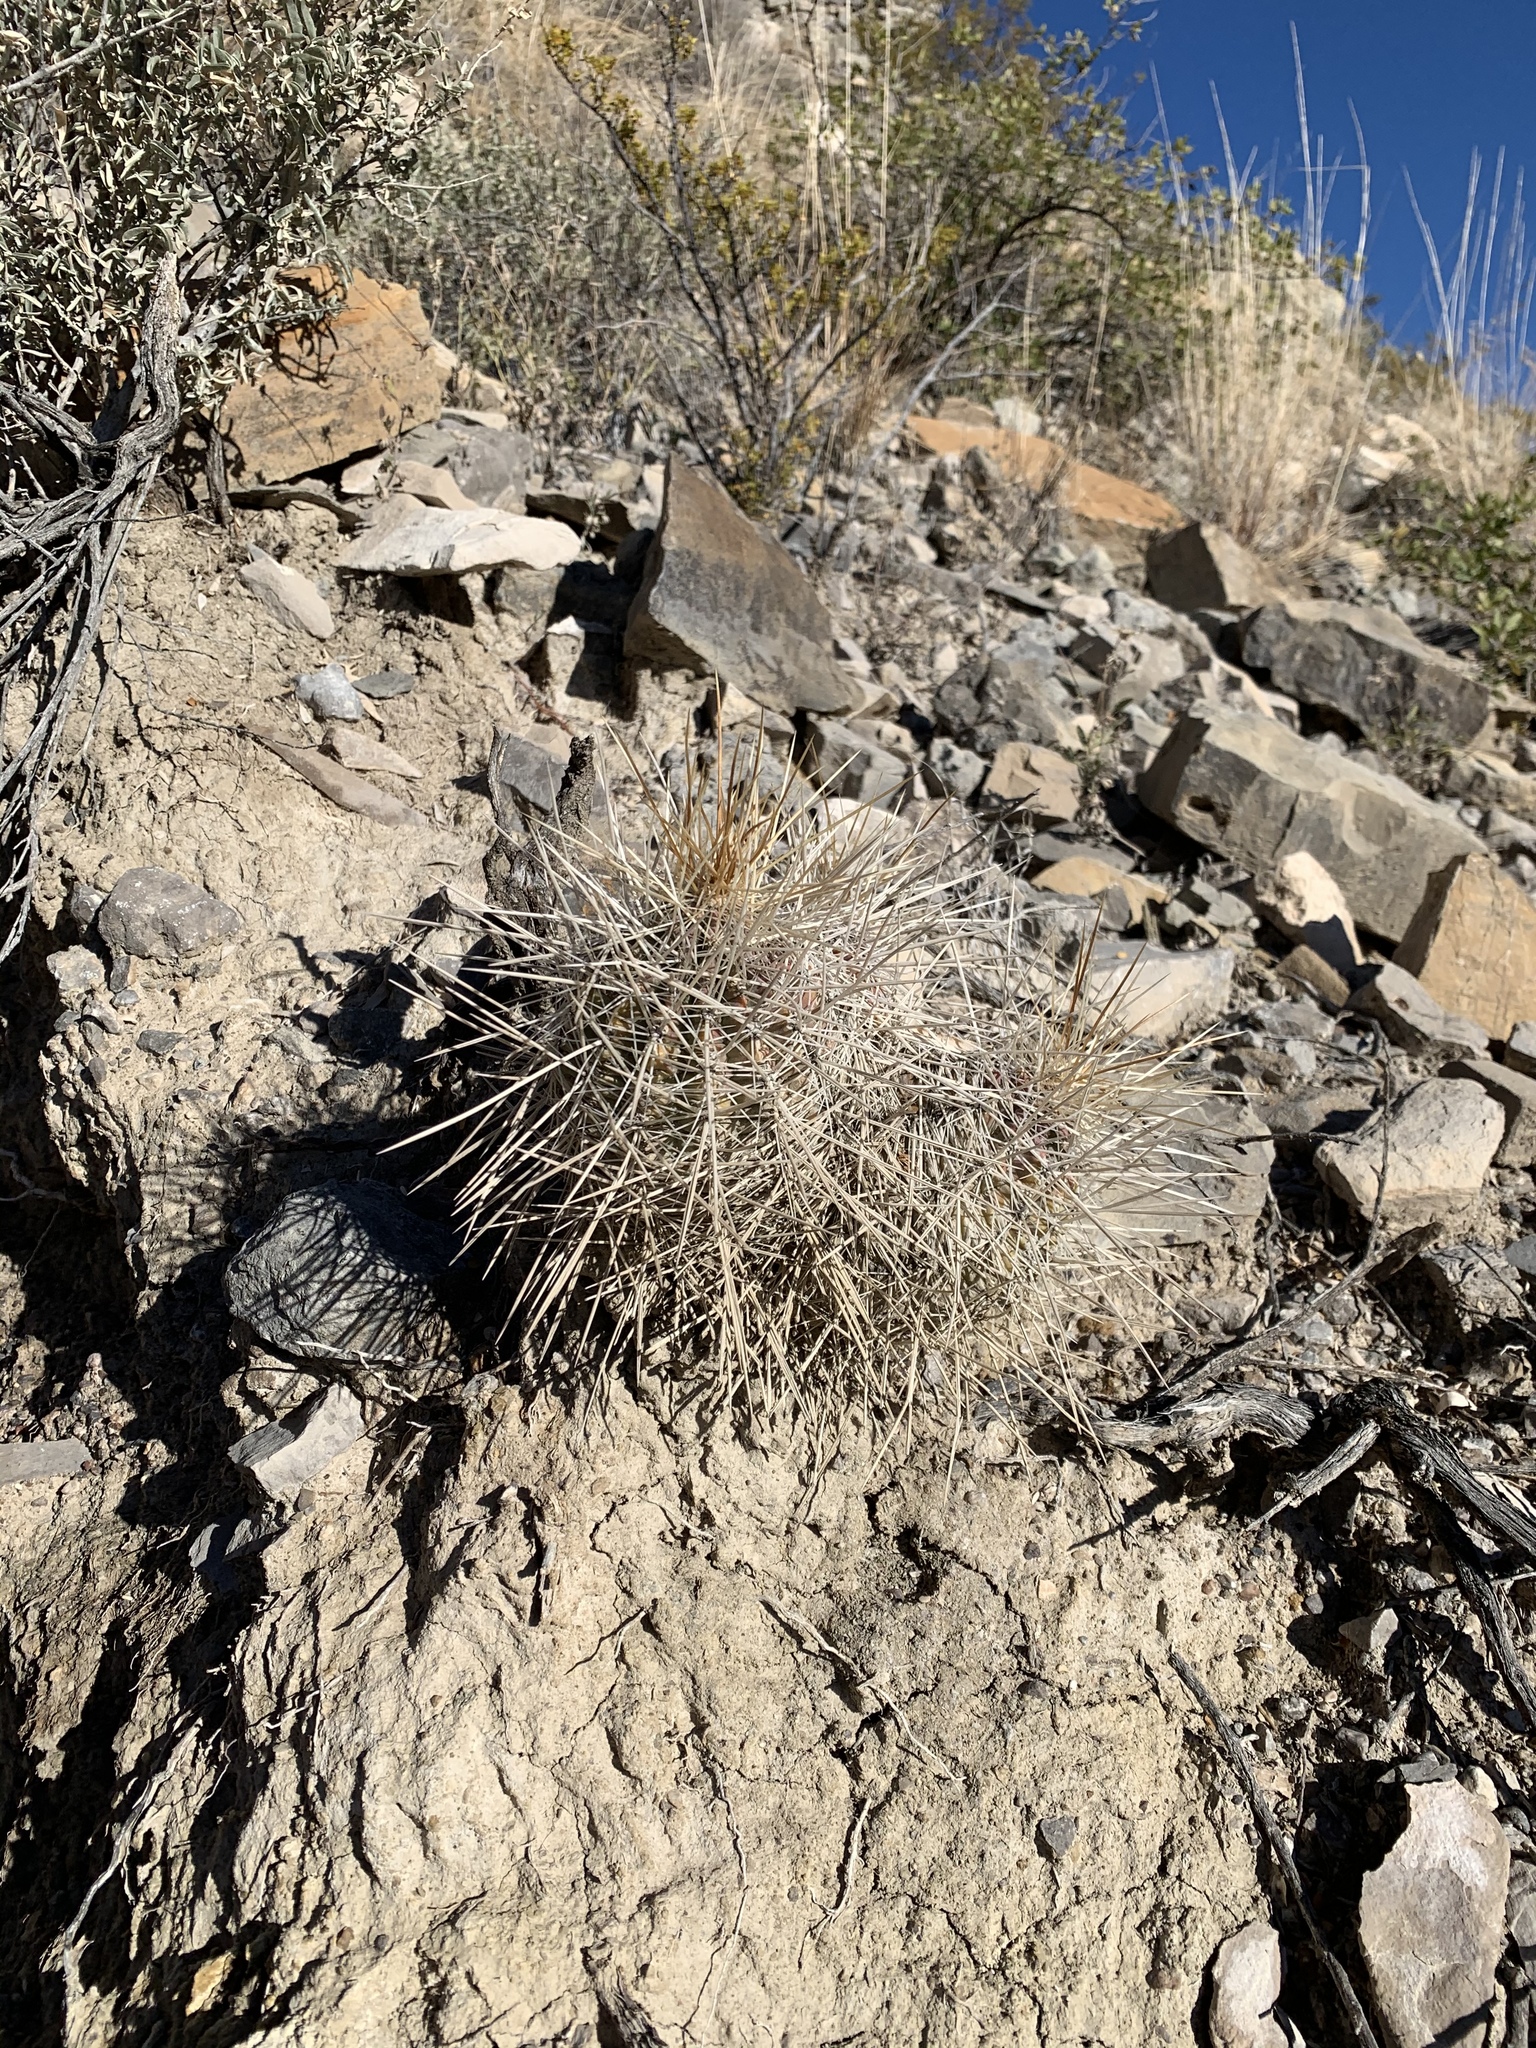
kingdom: Plantae
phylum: Tracheophyta
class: Magnoliopsida
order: Caryophyllales
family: Cactaceae
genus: Echinocereus
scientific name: Echinocereus stramineus
